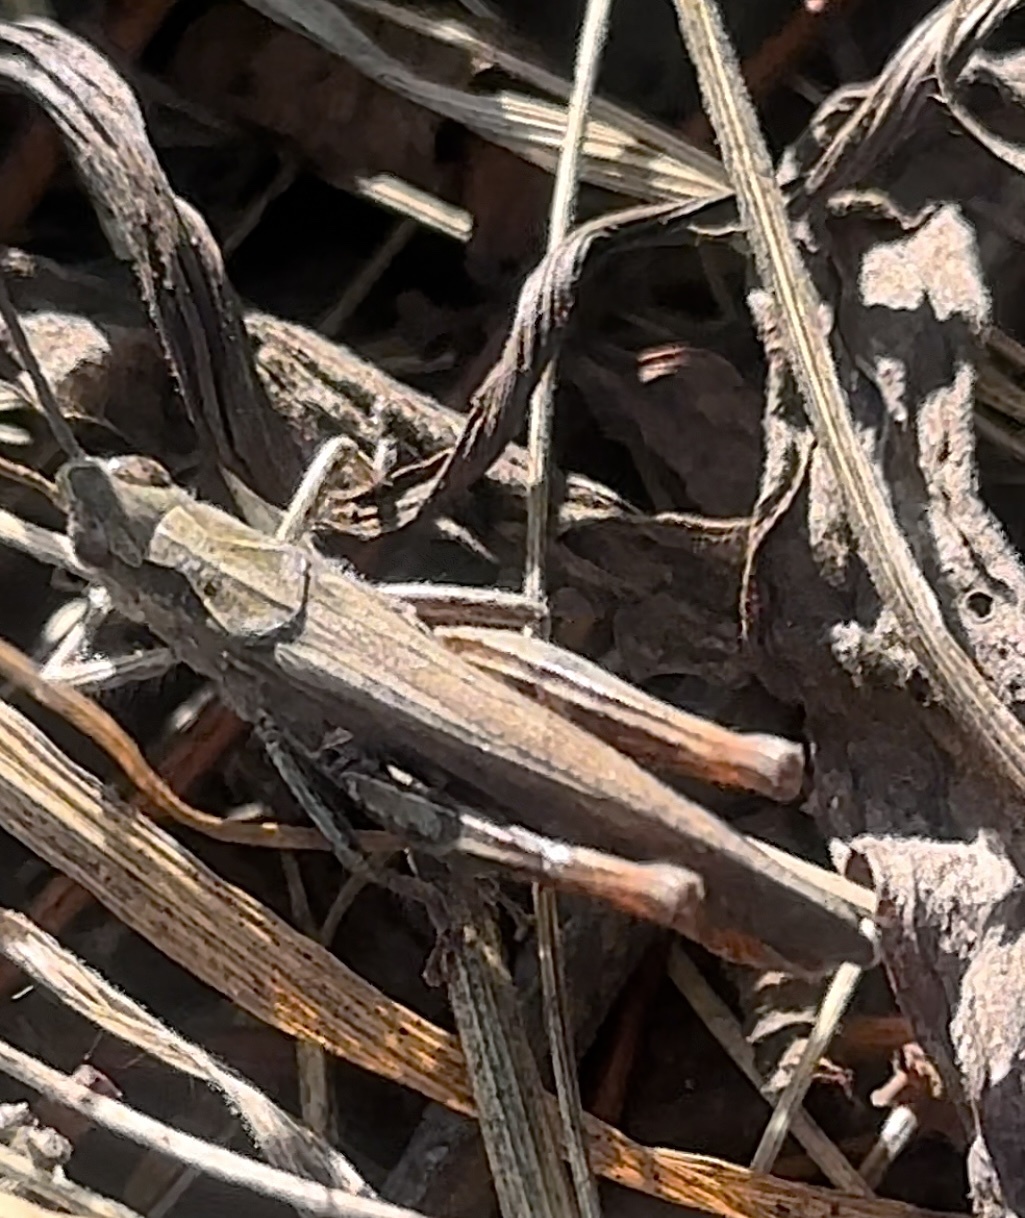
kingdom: Animalia
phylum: Arthropoda
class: Insecta
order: Orthoptera
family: Acrididae
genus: Chorthippus
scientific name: Chorthippus biguttulus
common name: Bow-winged grasshopper
